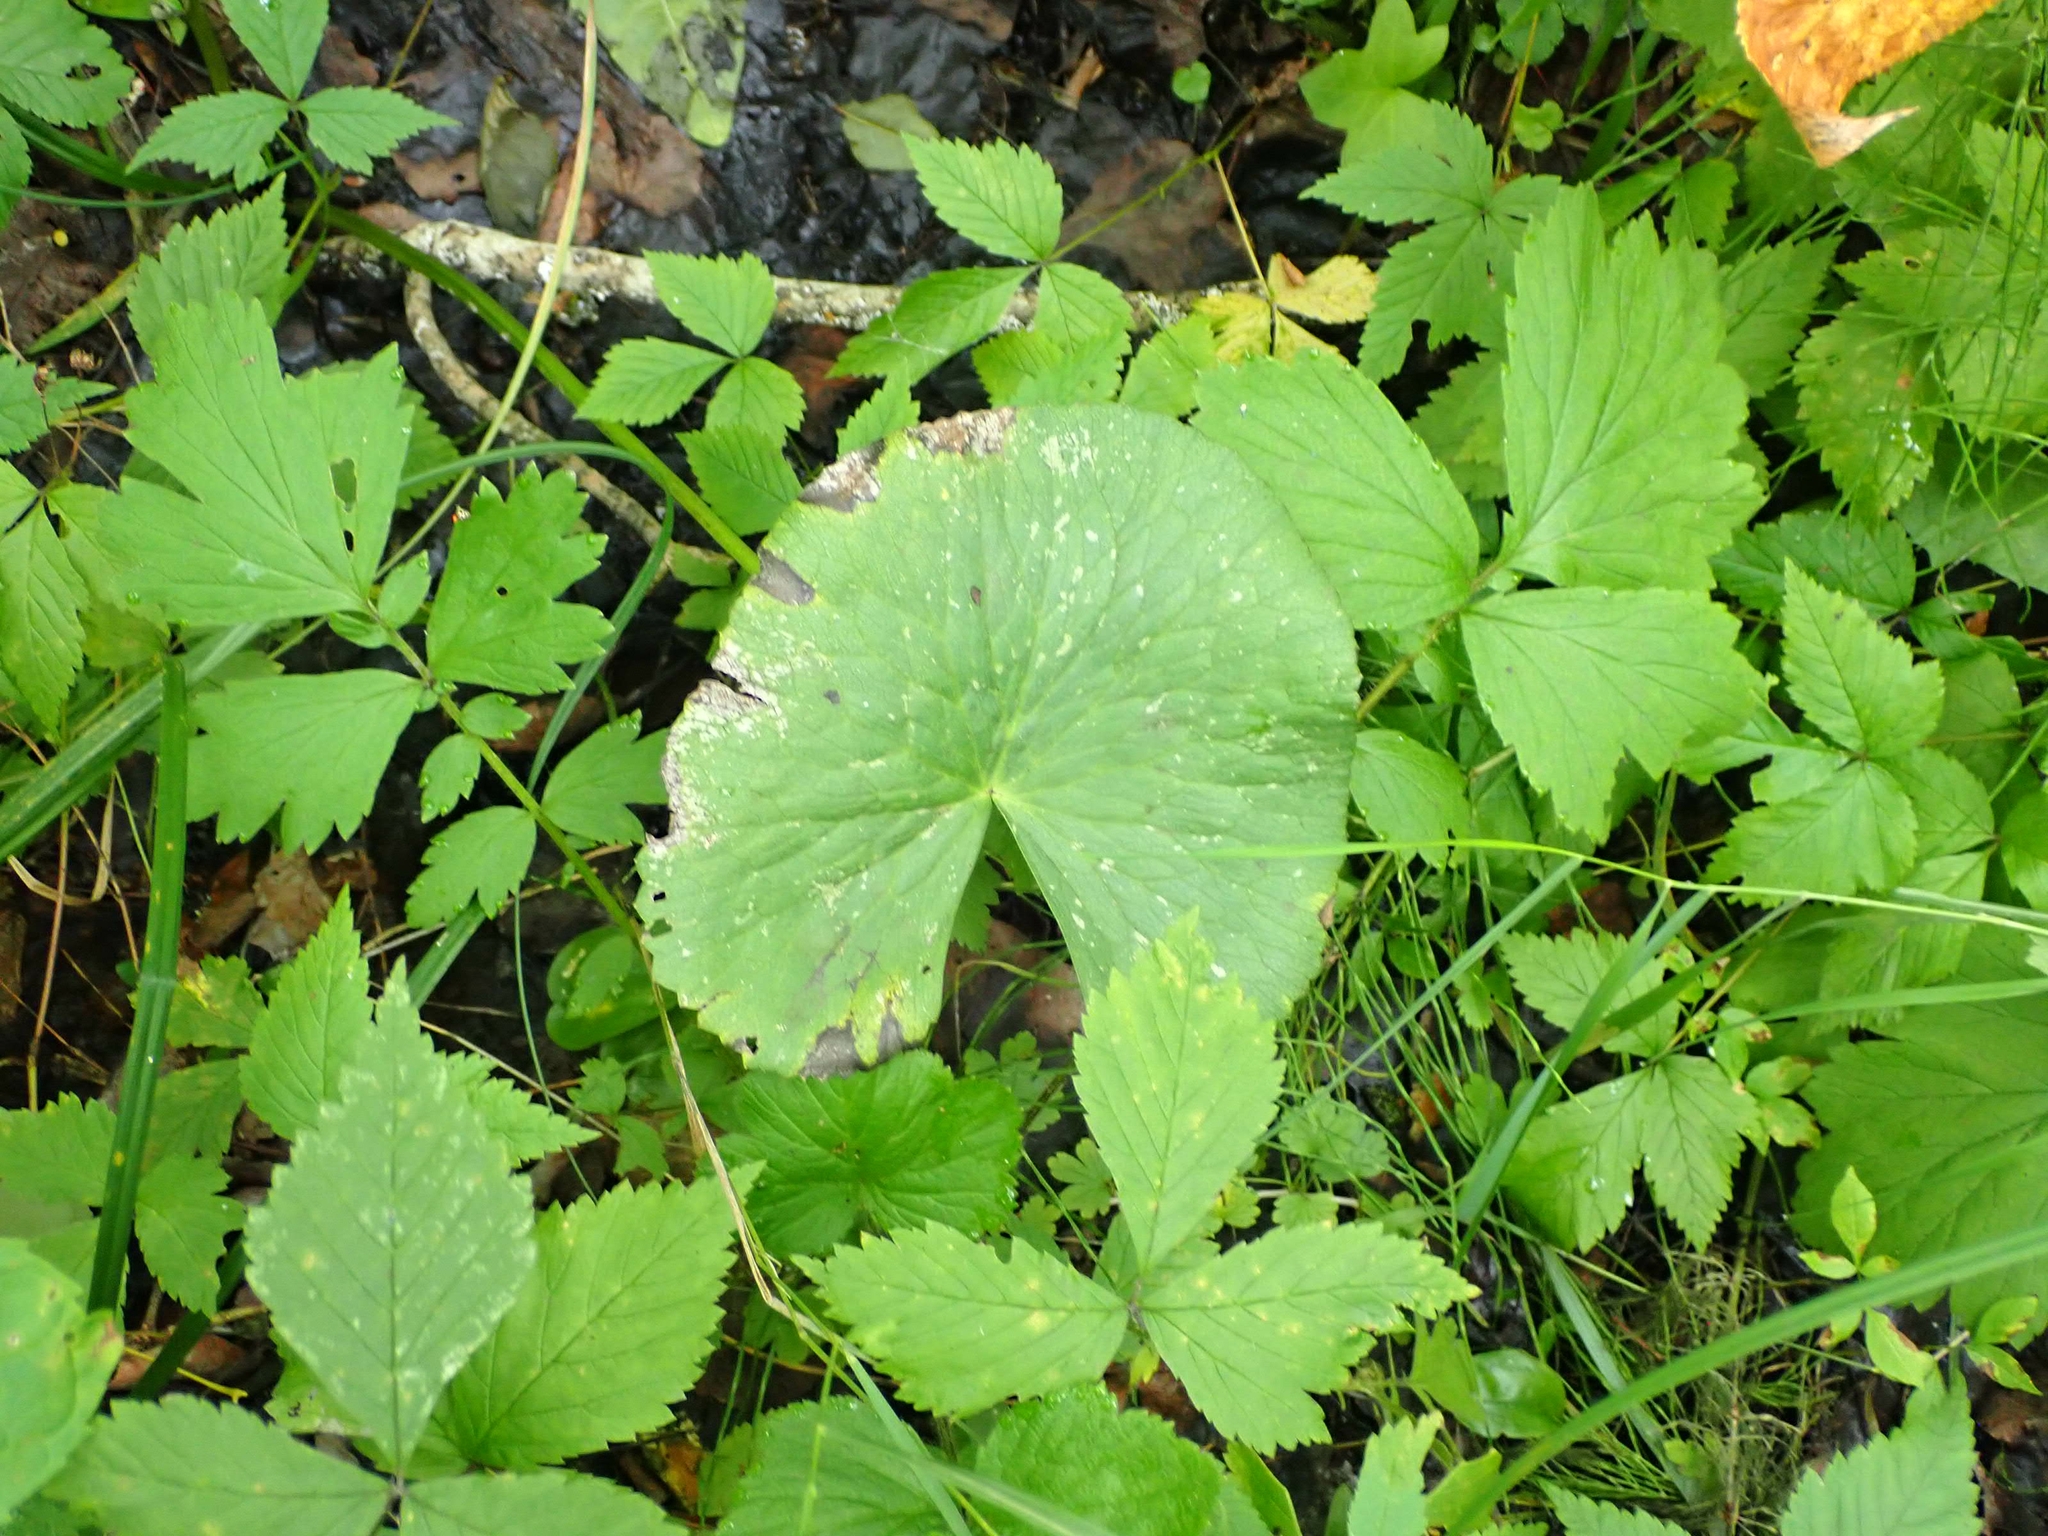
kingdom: Plantae
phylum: Tracheophyta
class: Magnoliopsida
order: Ranunculales
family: Ranunculaceae
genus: Caltha
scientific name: Caltha palustris
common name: Marsh marigold
